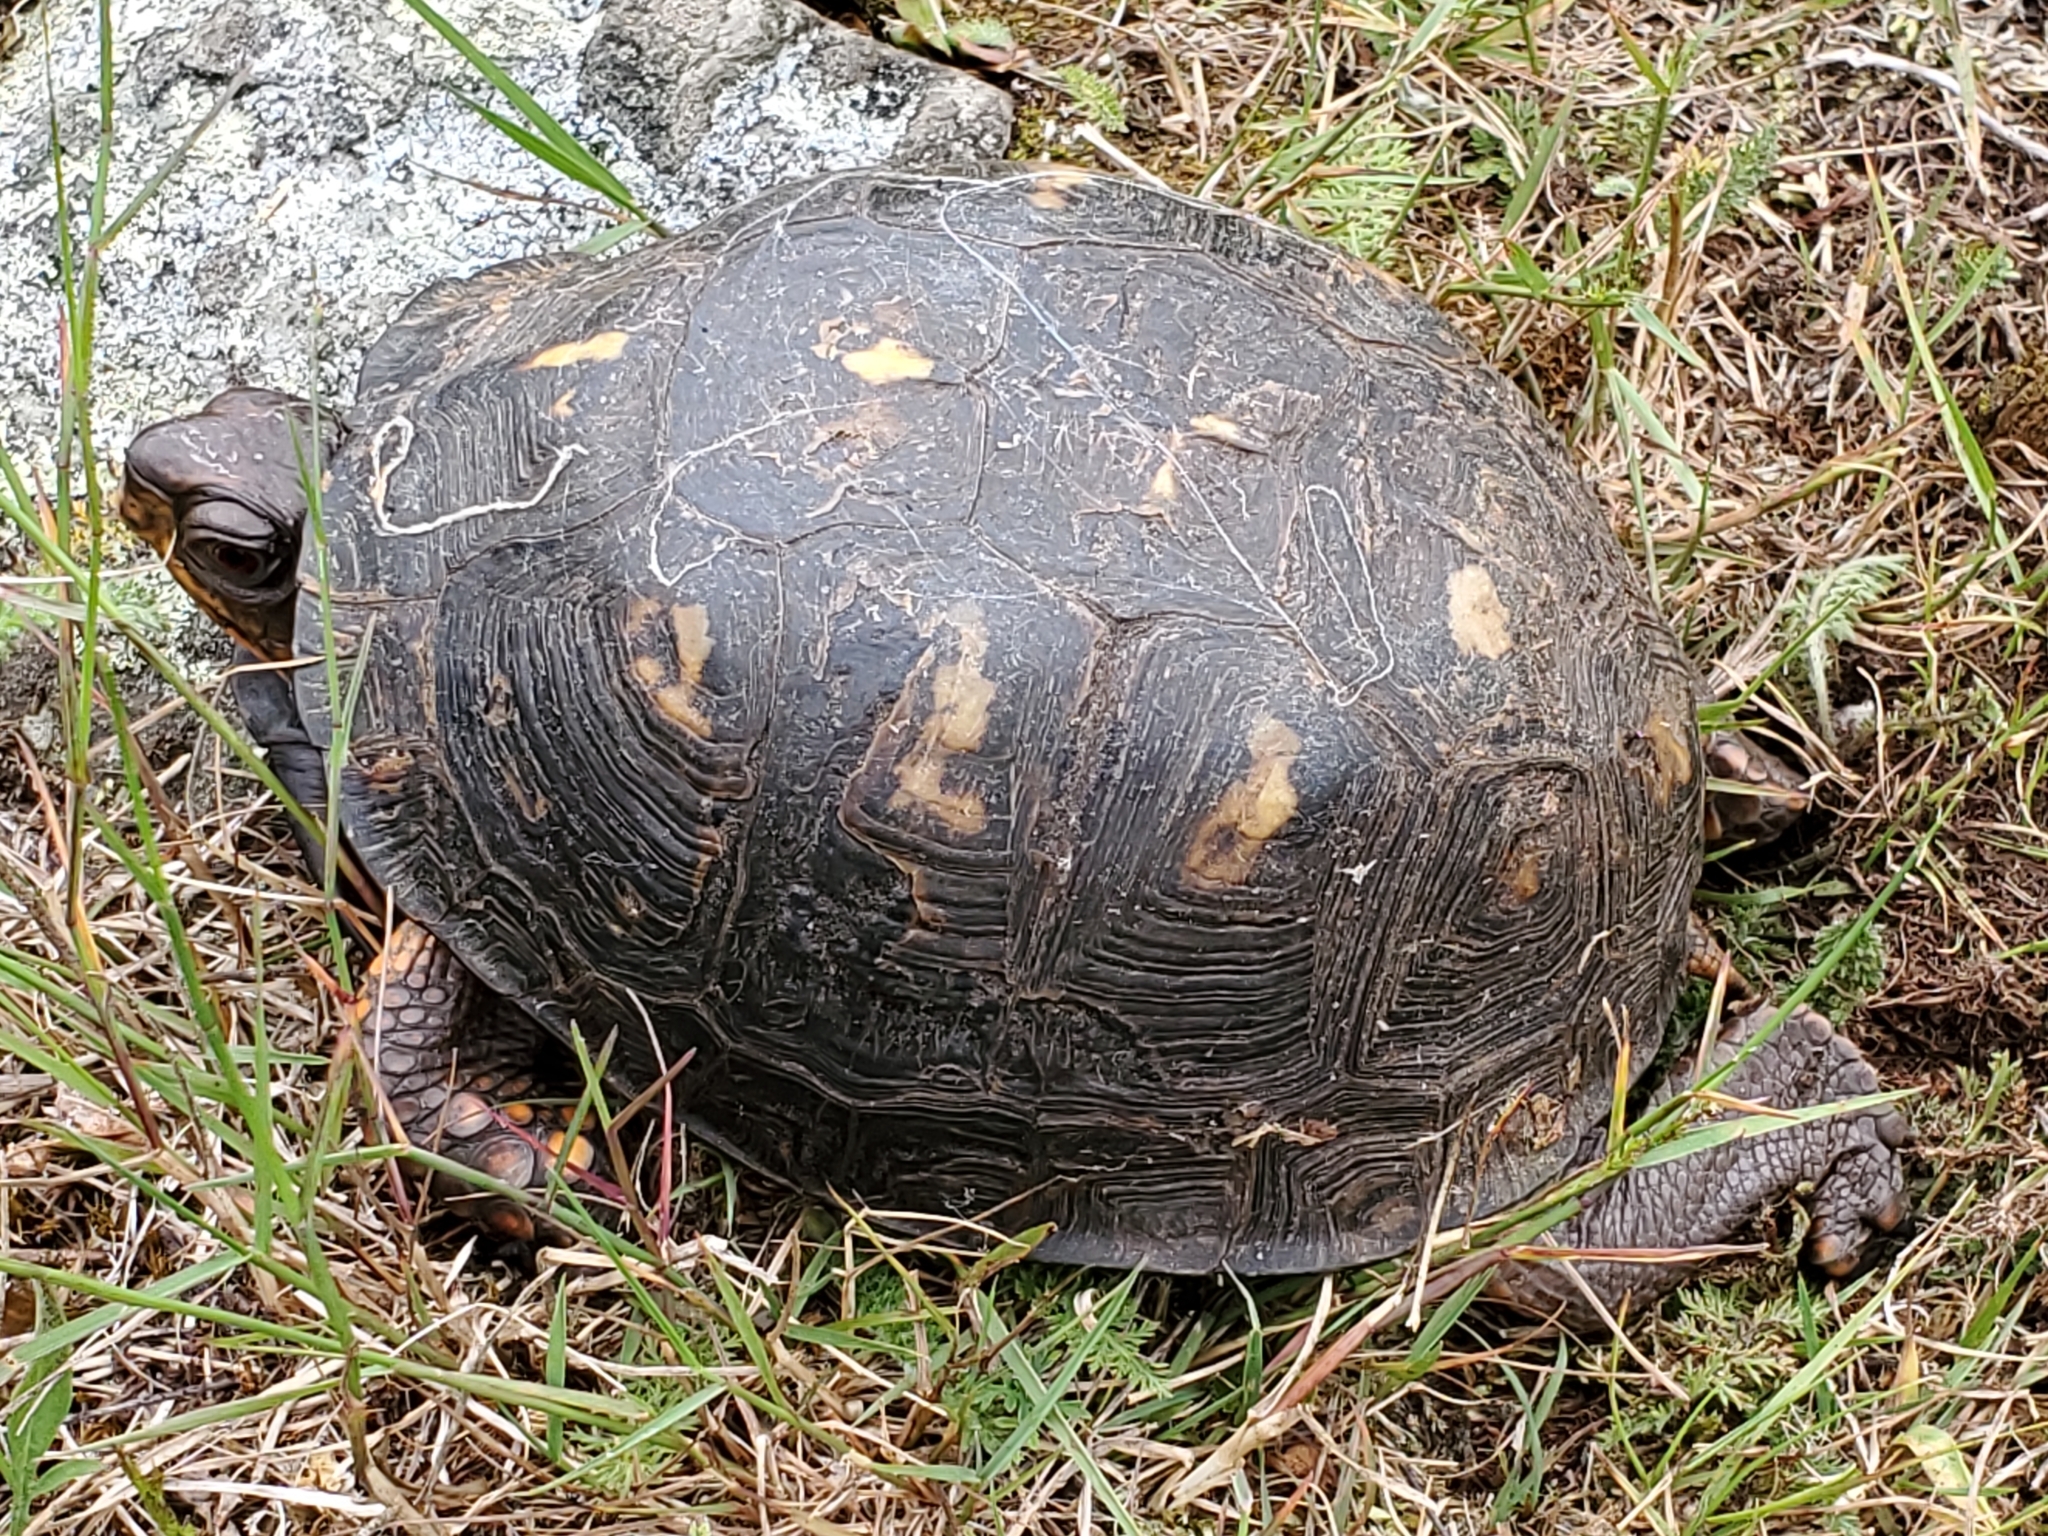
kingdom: Animalia
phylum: Chordata
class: Testudines
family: Emydidae
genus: Terrapene
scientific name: Terrapene carolina
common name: Common box turtle
